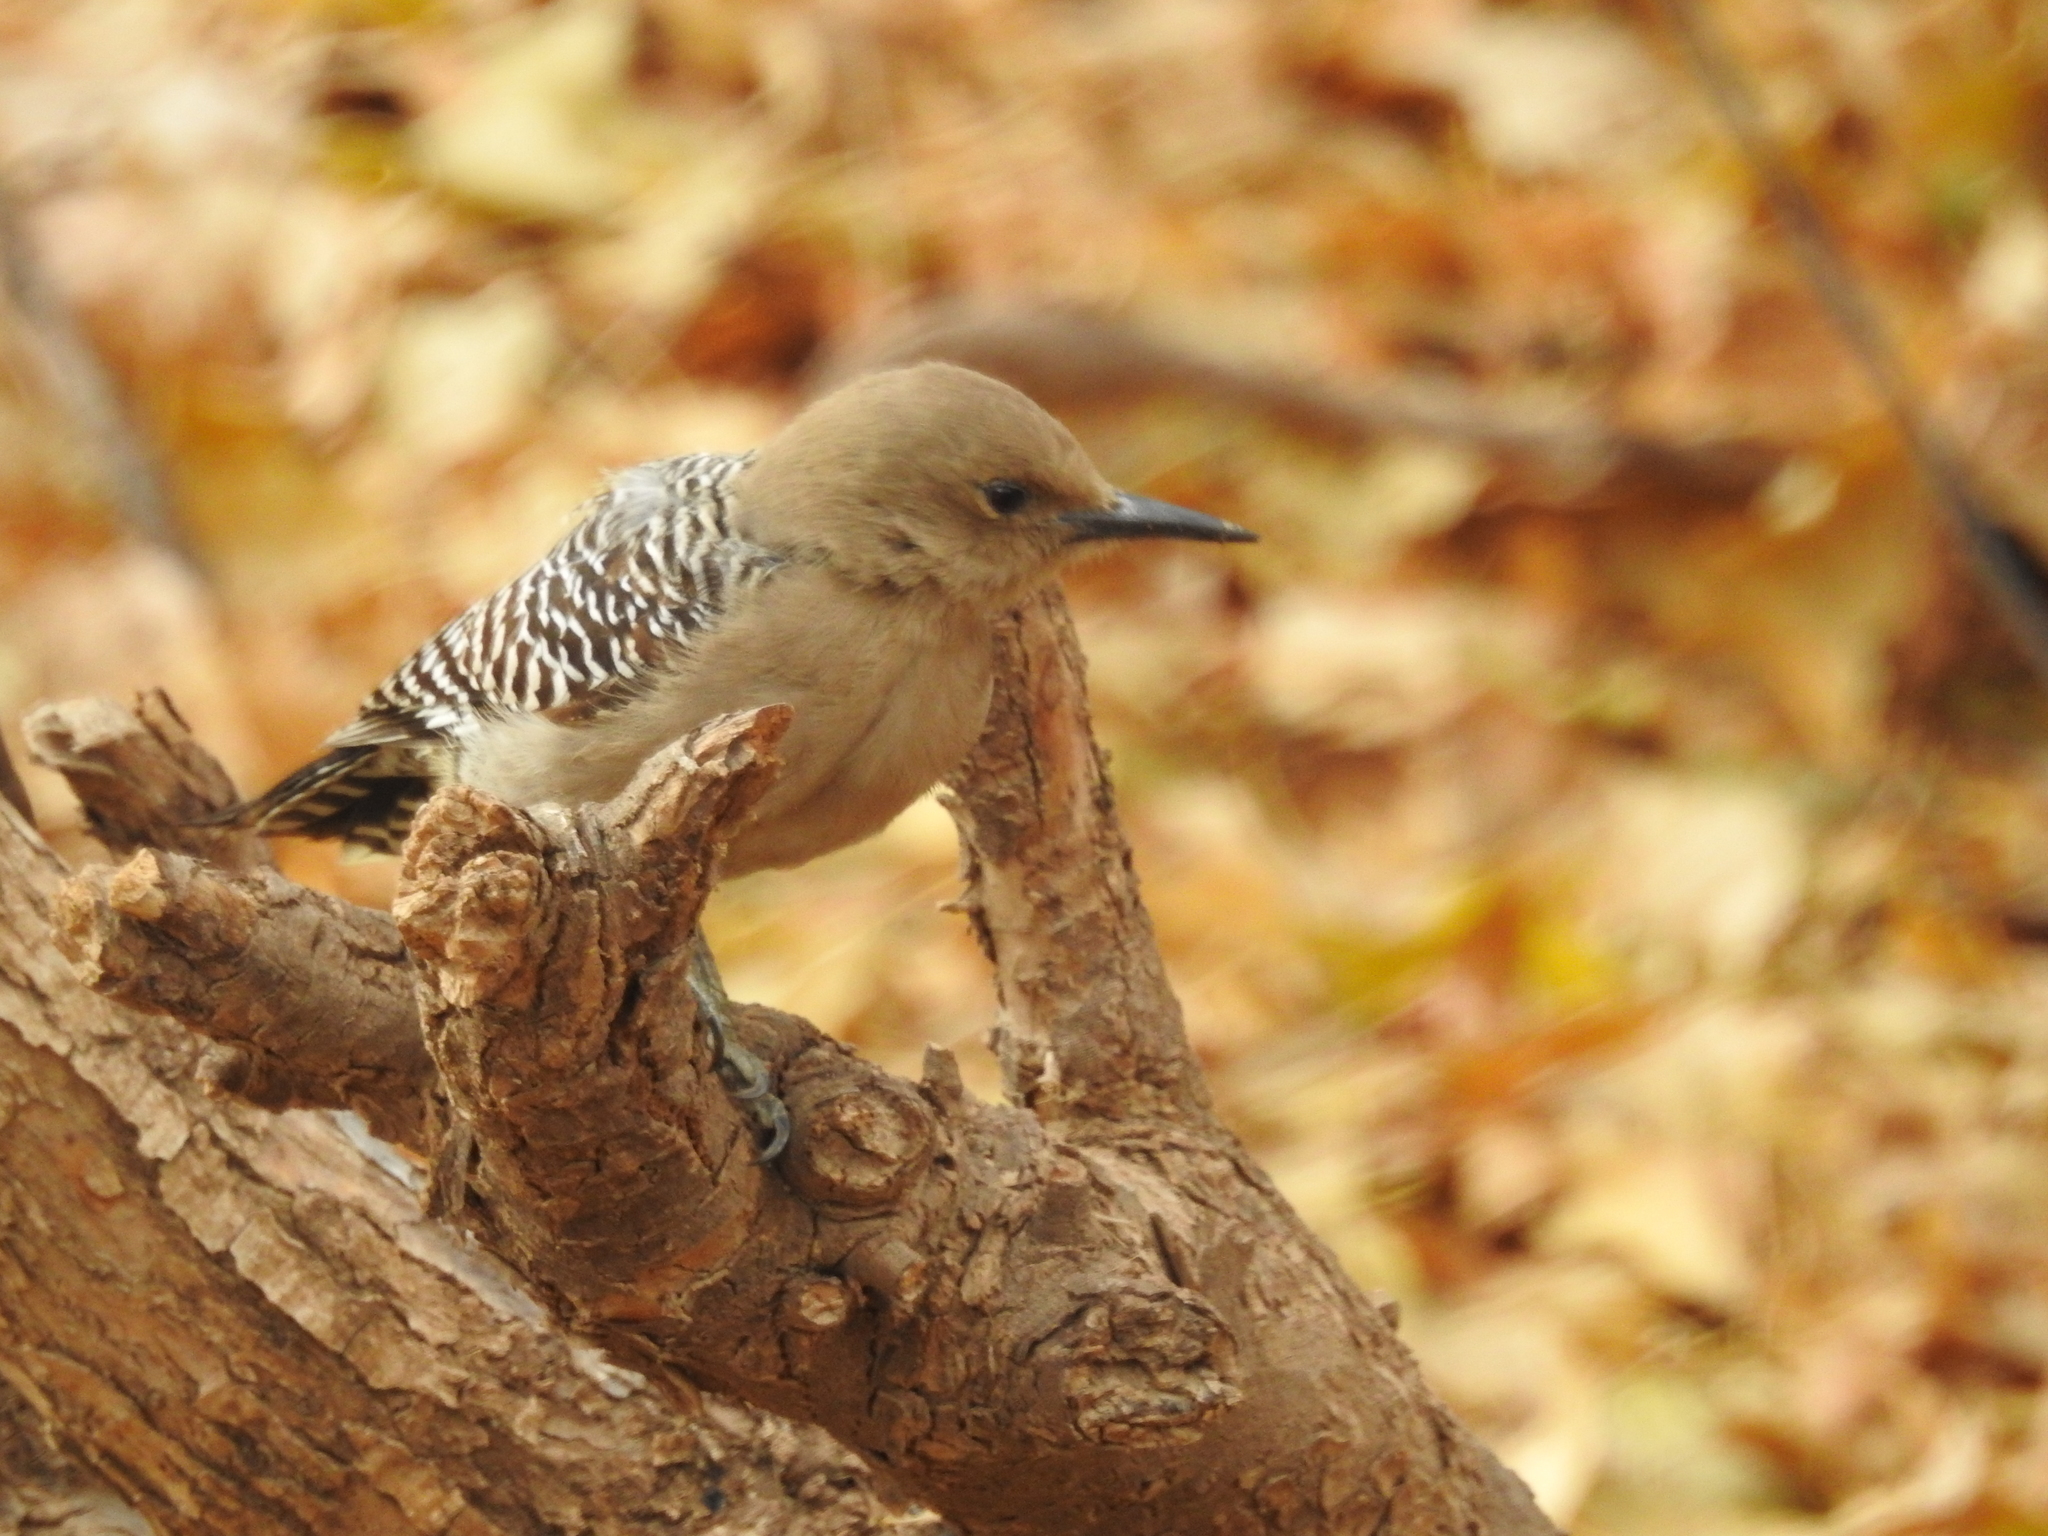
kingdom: Animalia
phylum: Chordata
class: Aves
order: Piciformes
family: Picidae
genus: Melanerpes
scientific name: Melanerpes uropygialis
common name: Gila woodpecker
